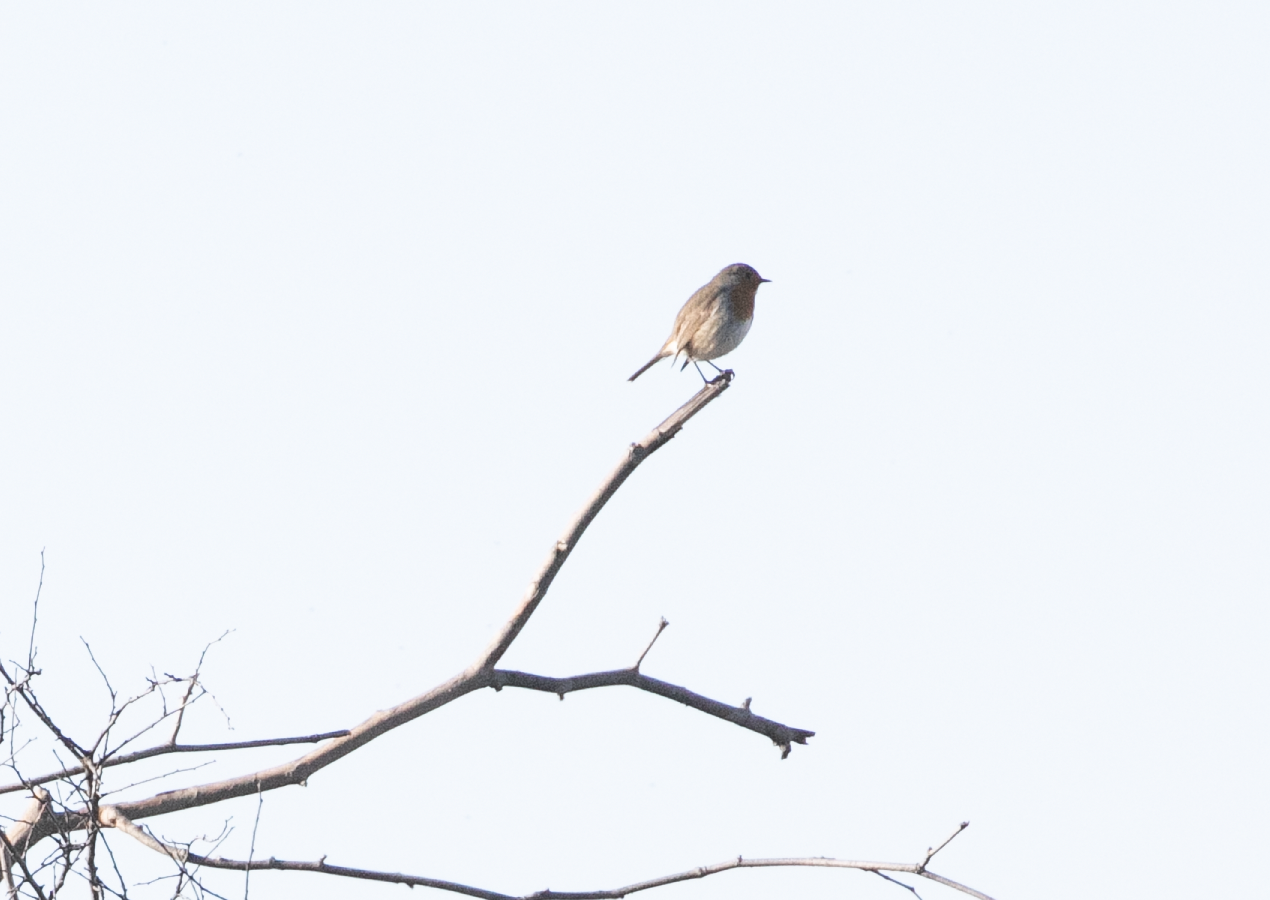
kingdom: Animalia
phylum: Chordata
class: Aves
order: Passeriformes
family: Muscicapidae
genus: Erithacus
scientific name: Erithacus rubecula
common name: European robin
